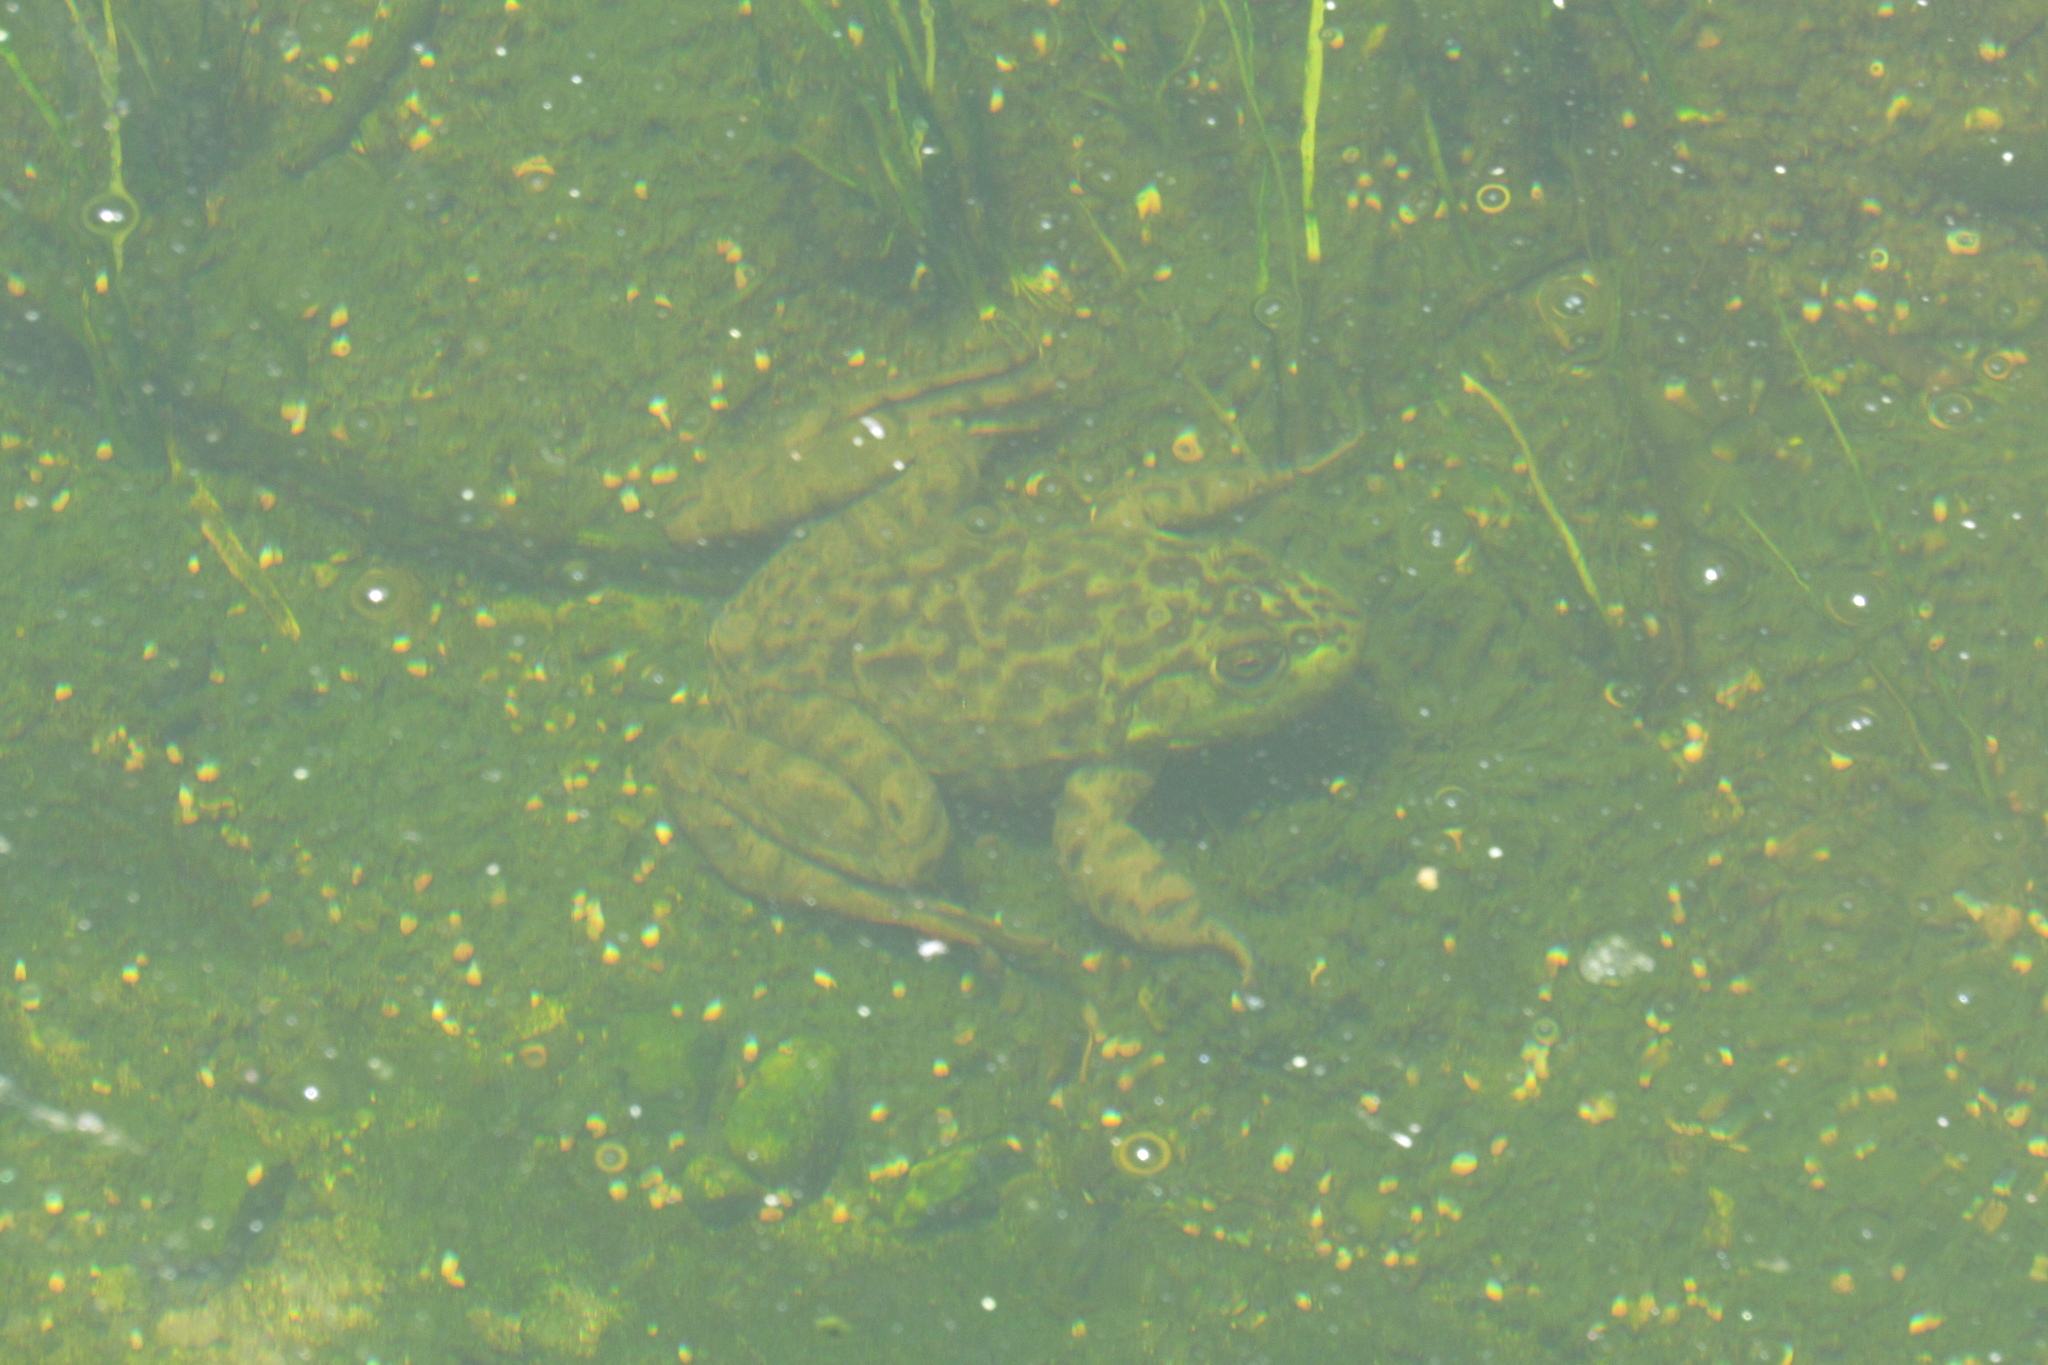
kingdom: Animalia
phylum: Chordata
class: Amphibia
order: Anura
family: Ranidae
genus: Lithobates
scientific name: Lithobates catesbeianus
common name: American bullfrog
